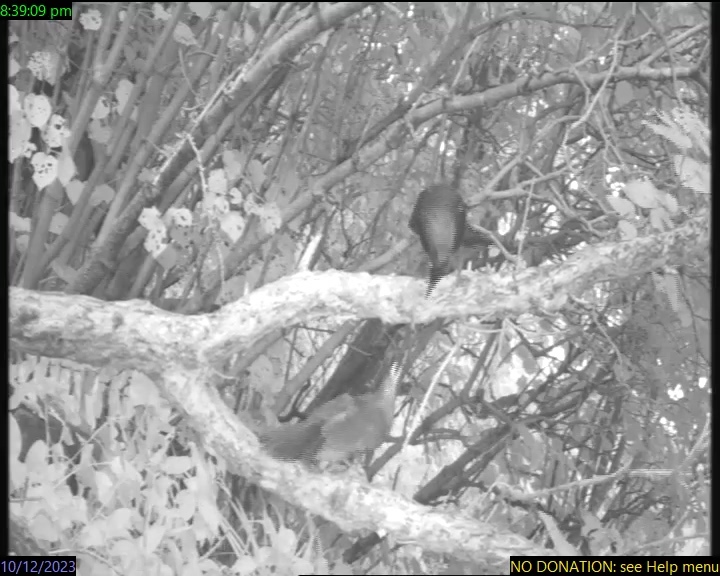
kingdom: Animalia
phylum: Chordata
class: Aves
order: Passeriformes
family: Turdidae
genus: Turdus
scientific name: Turdus merula
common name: Common blackbird
